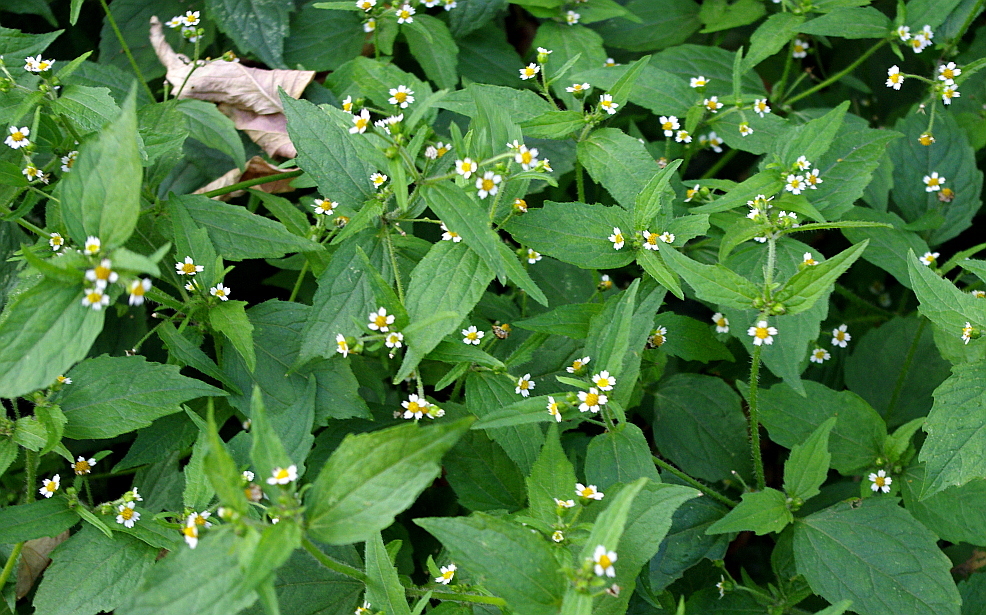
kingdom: Plantae
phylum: Tracheophyta
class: Magnoliopsida
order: Asterales
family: Asteraceae
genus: Galinsoga
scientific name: Galinsoga quadriradiata
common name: Shaggy soldier
